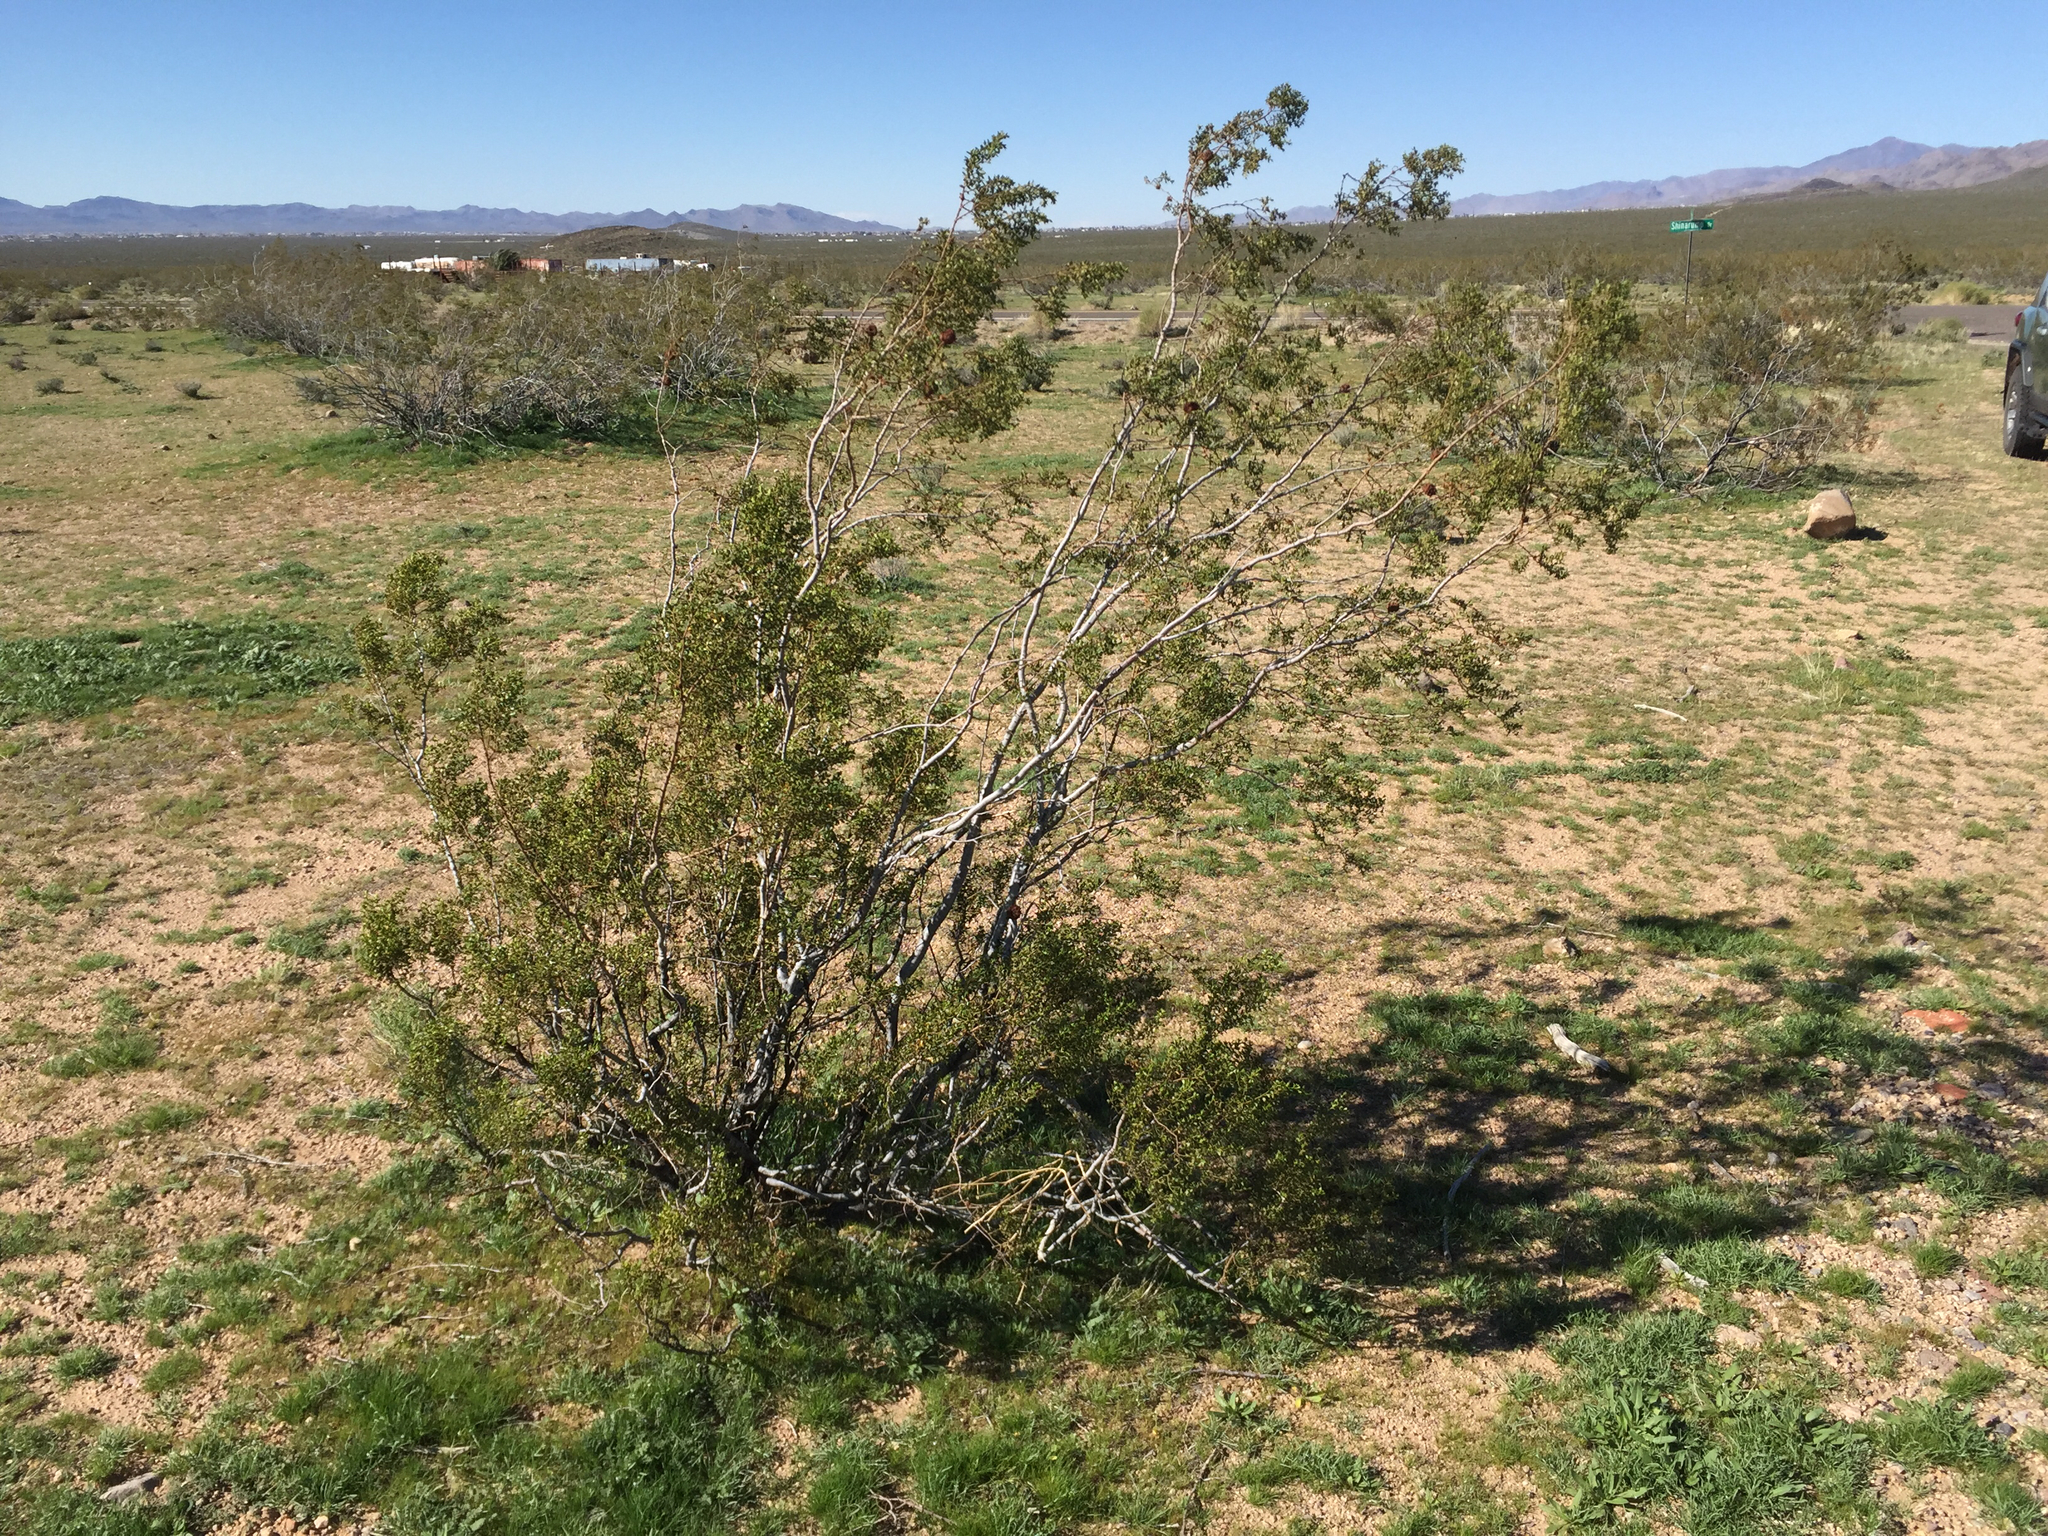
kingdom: Plantae
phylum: Tracheophyta
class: Magnoliopsida
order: Zygophyllales
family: Zygophyllaceae
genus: Larrea
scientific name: Larrea tridentata
